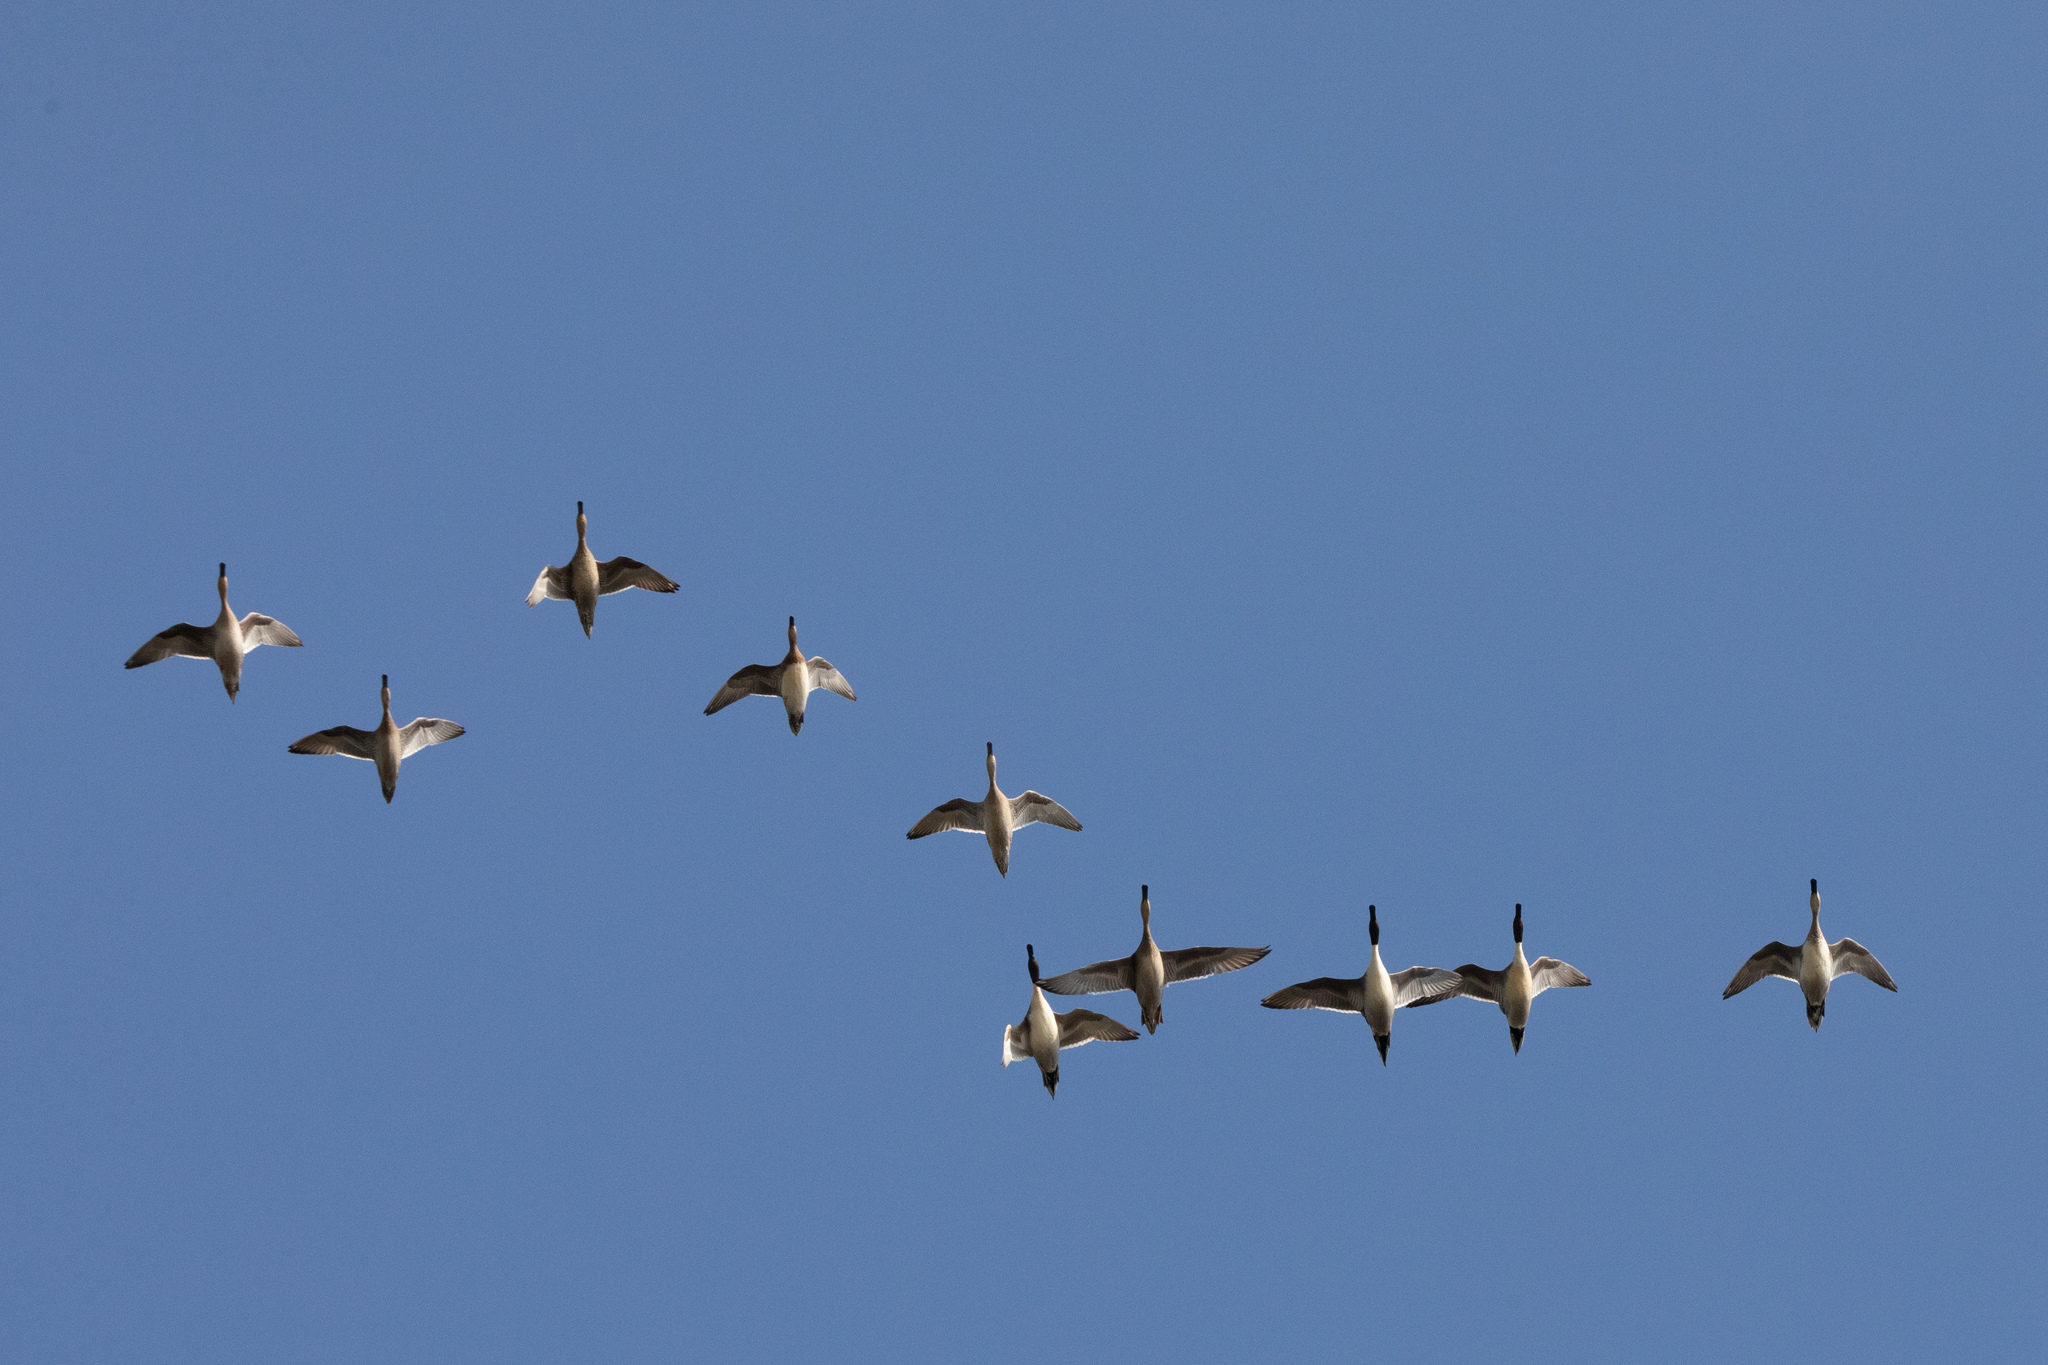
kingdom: Animalia
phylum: Chordata
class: Aves
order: Anseriformes
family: Anatidae
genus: Anas
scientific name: Anas acuta
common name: Northern pintail
